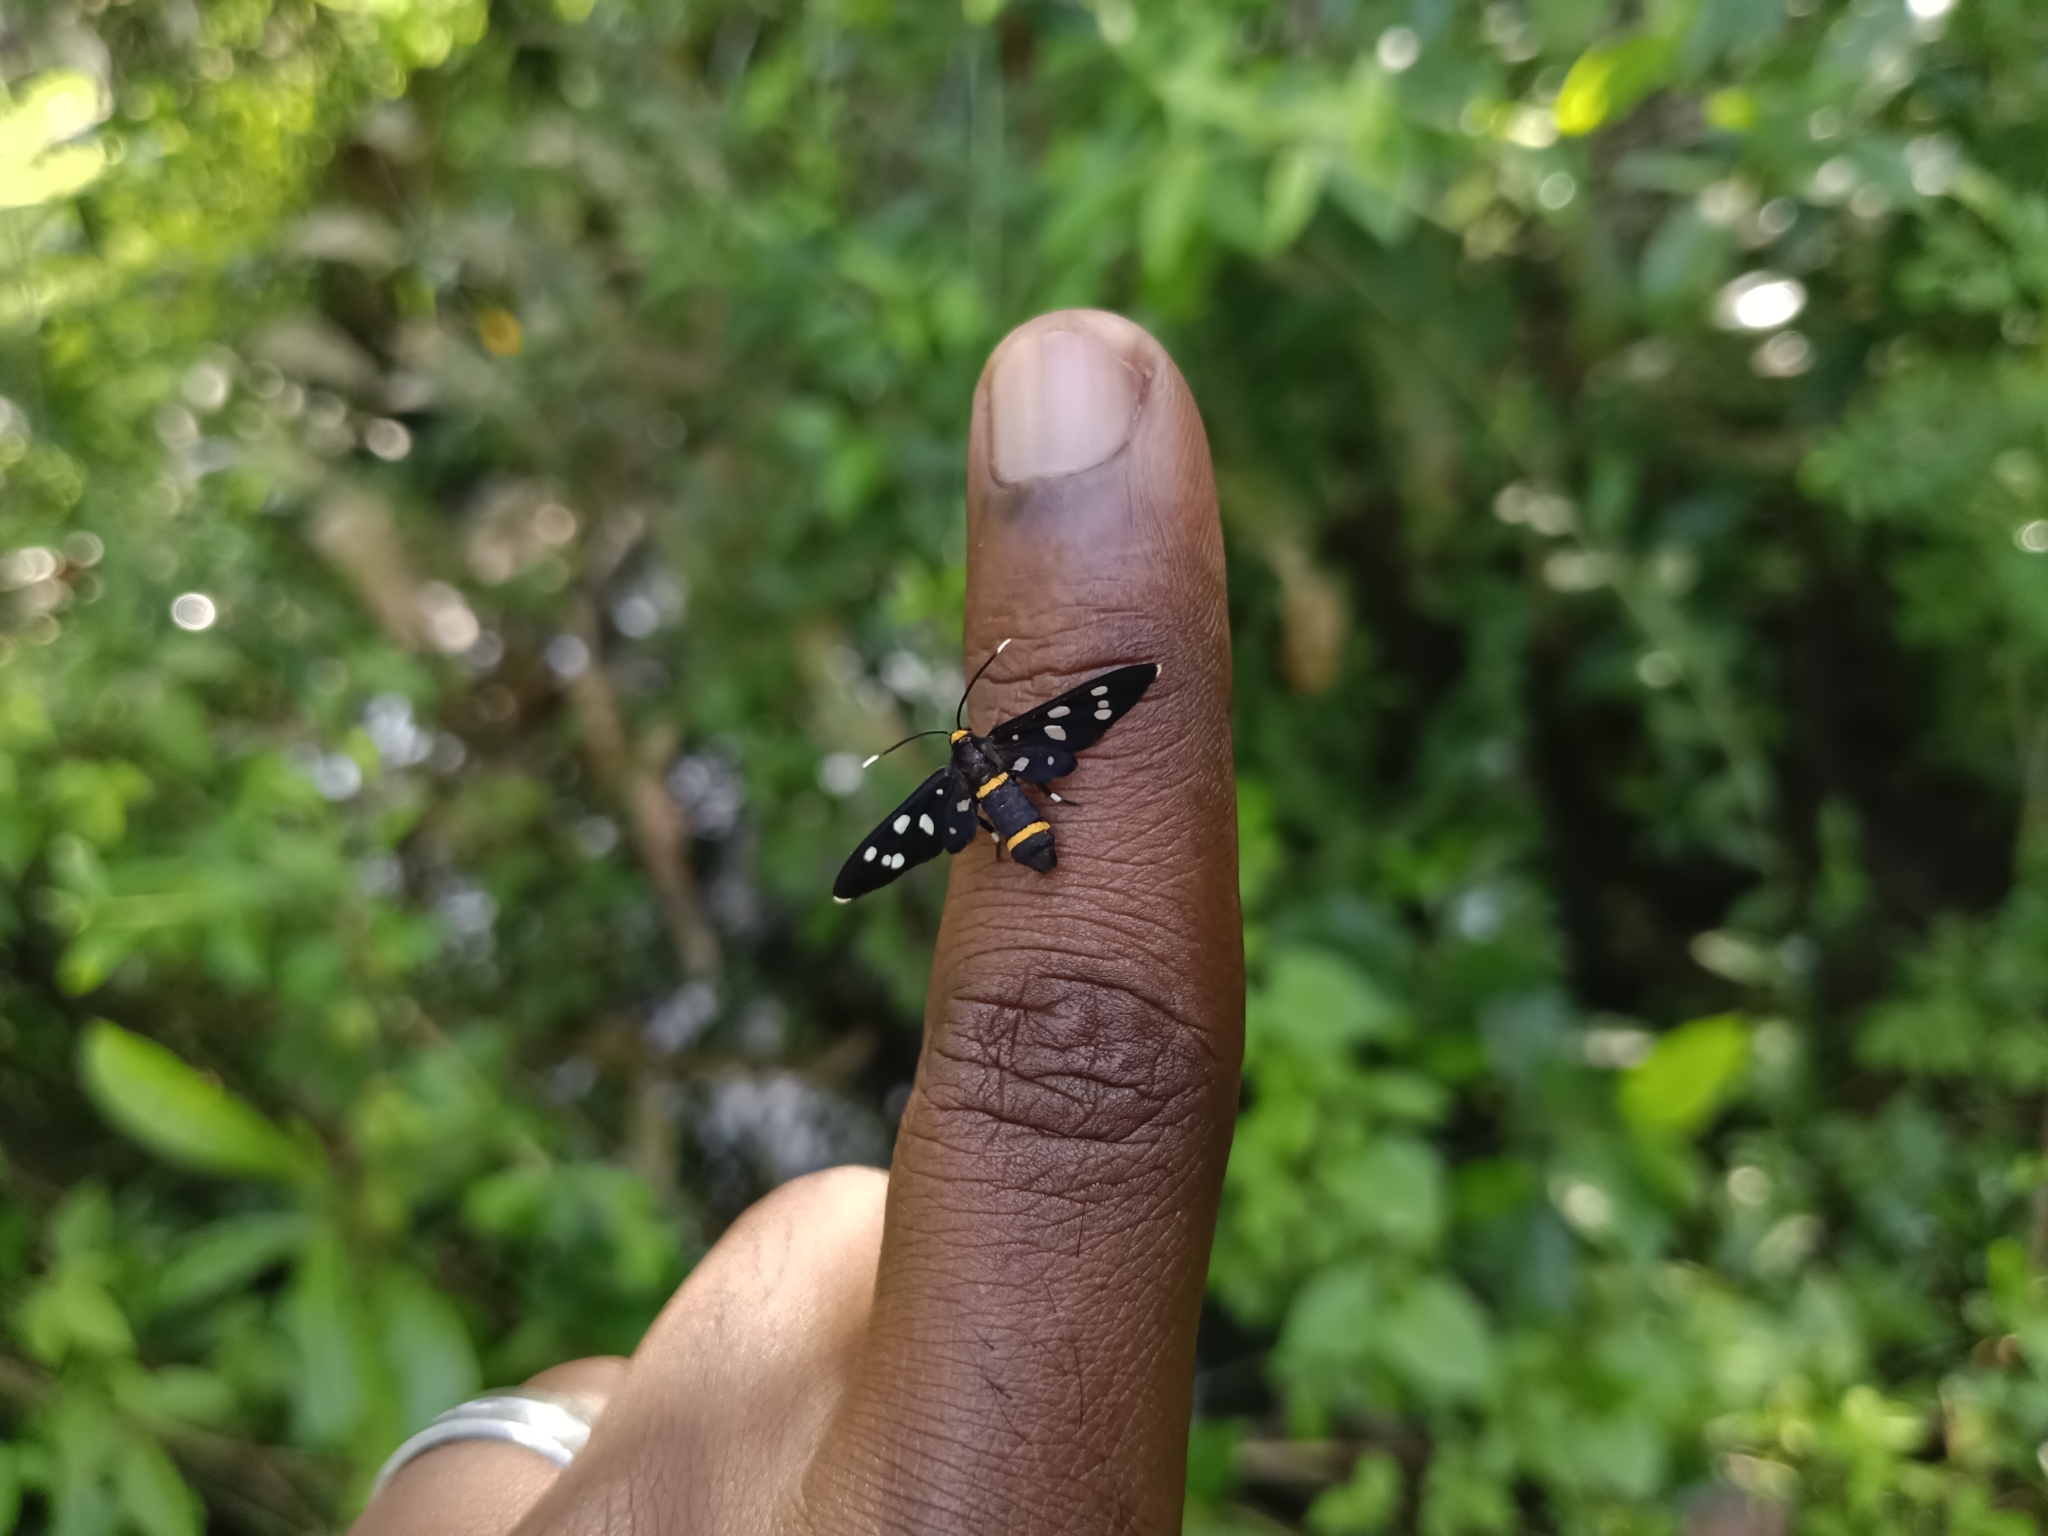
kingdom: Animalia
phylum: Arthropoda
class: Insecta
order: Lepidoptera
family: Erebidae
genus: Amata
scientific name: Amata cyssea
